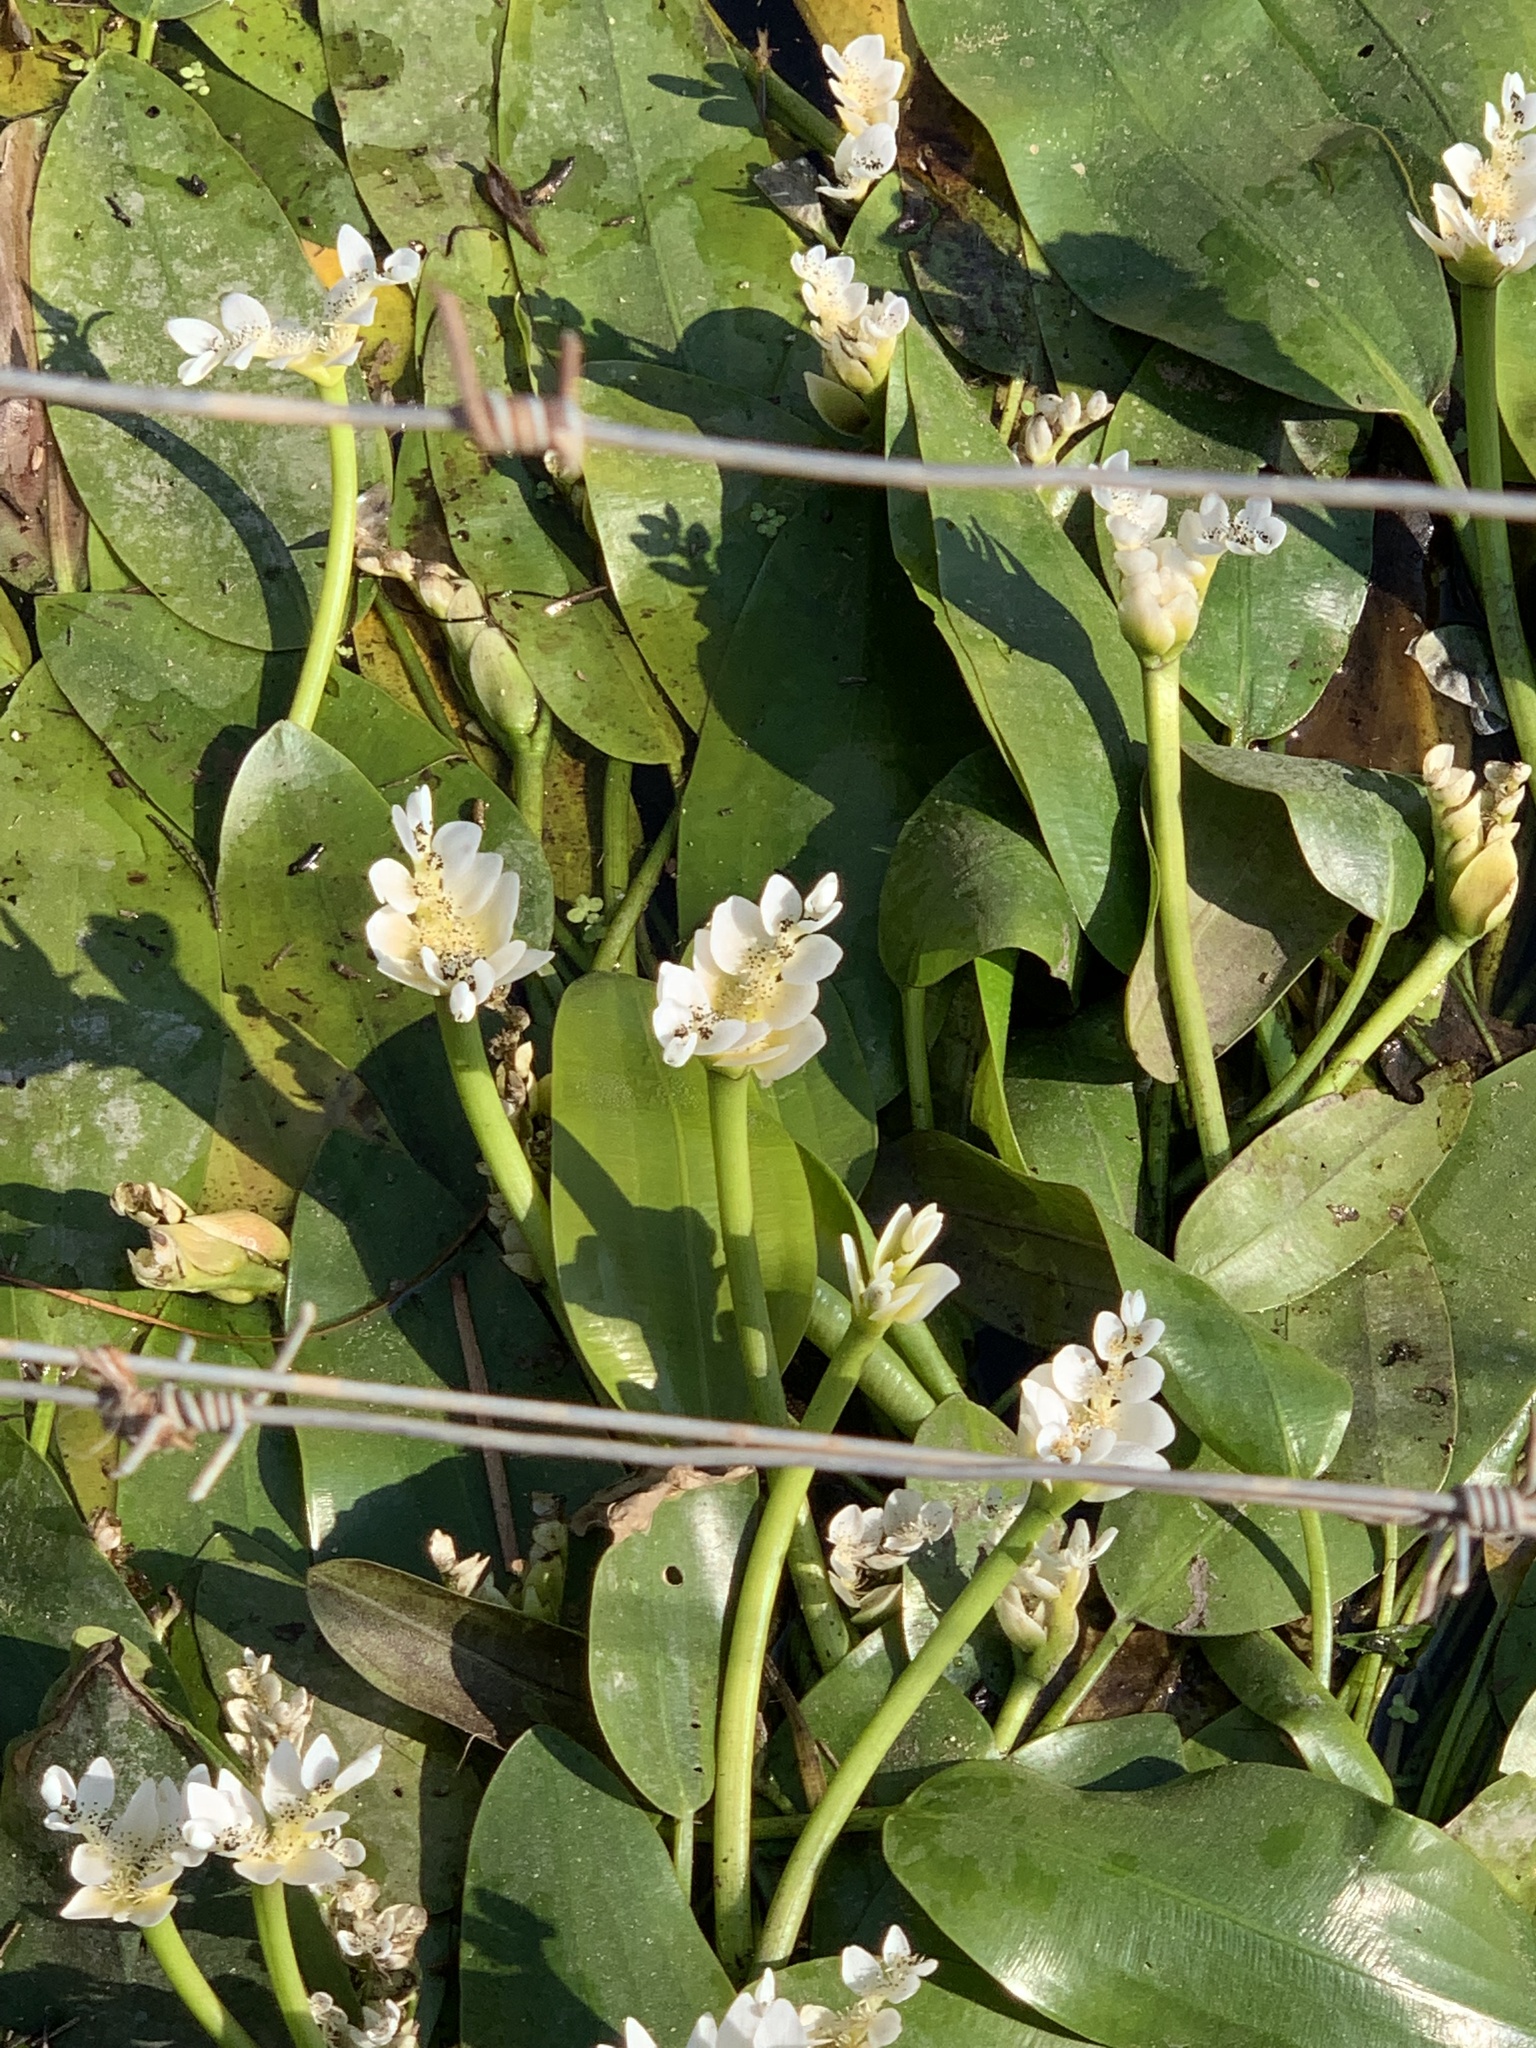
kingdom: Plantae
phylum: Tracheophyta
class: Liliopsida
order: Alismatales
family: Aponogetonaceae
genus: Aponogeton
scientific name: Aponogeton distachyos
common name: Cape-pondweed
